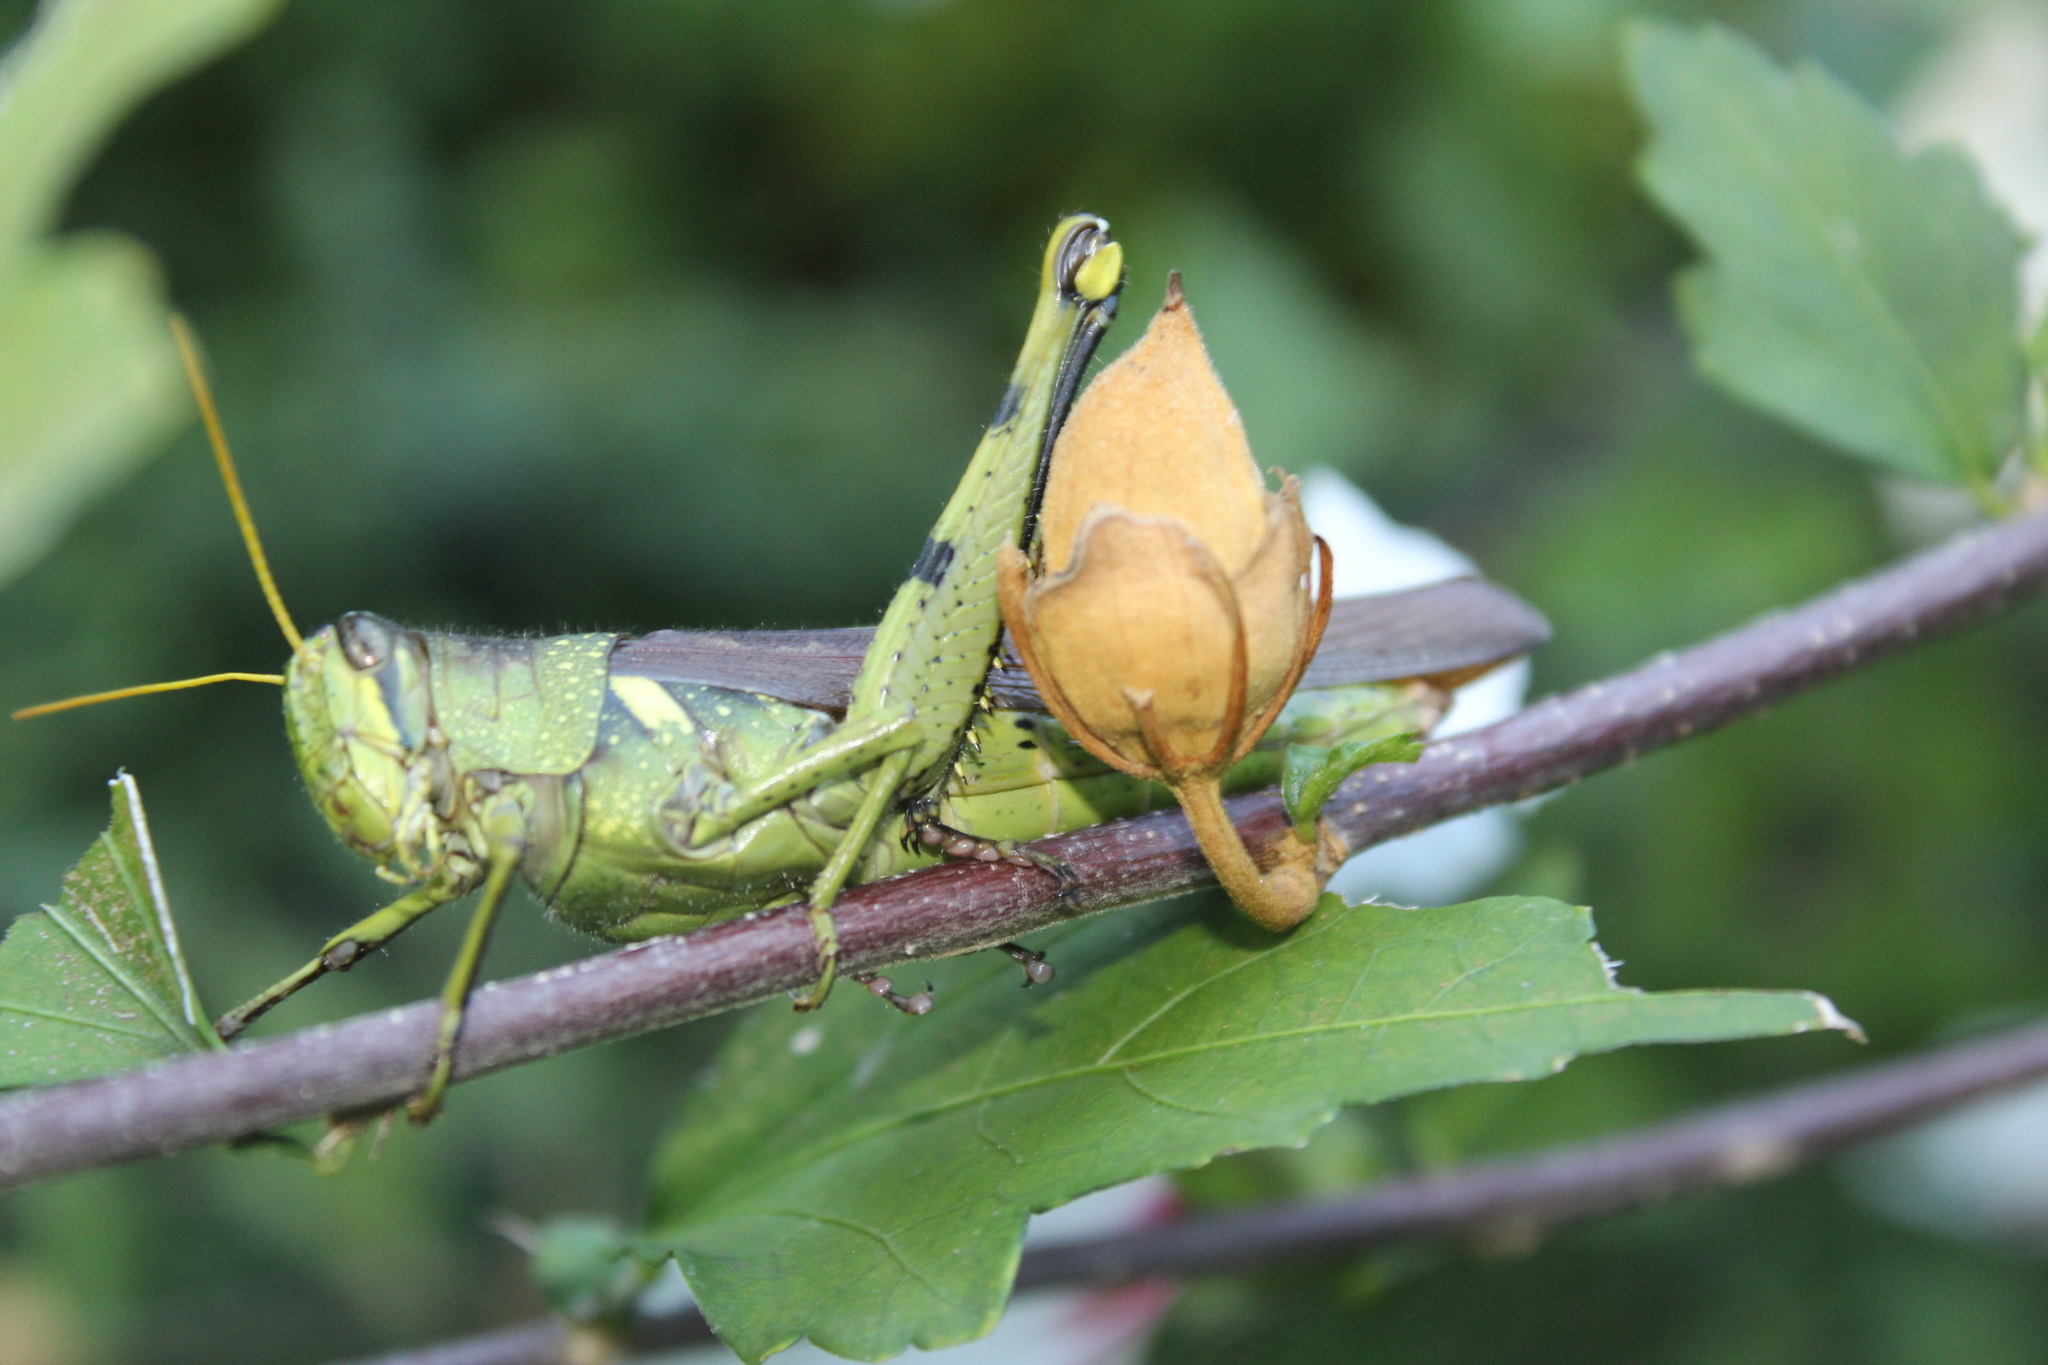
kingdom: Animalia
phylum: Arthropoda
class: Insecta
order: Orthoptera
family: Acrididae
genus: Schistocerca
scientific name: Schistocerca obscura
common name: Obscure bird grasshopper
